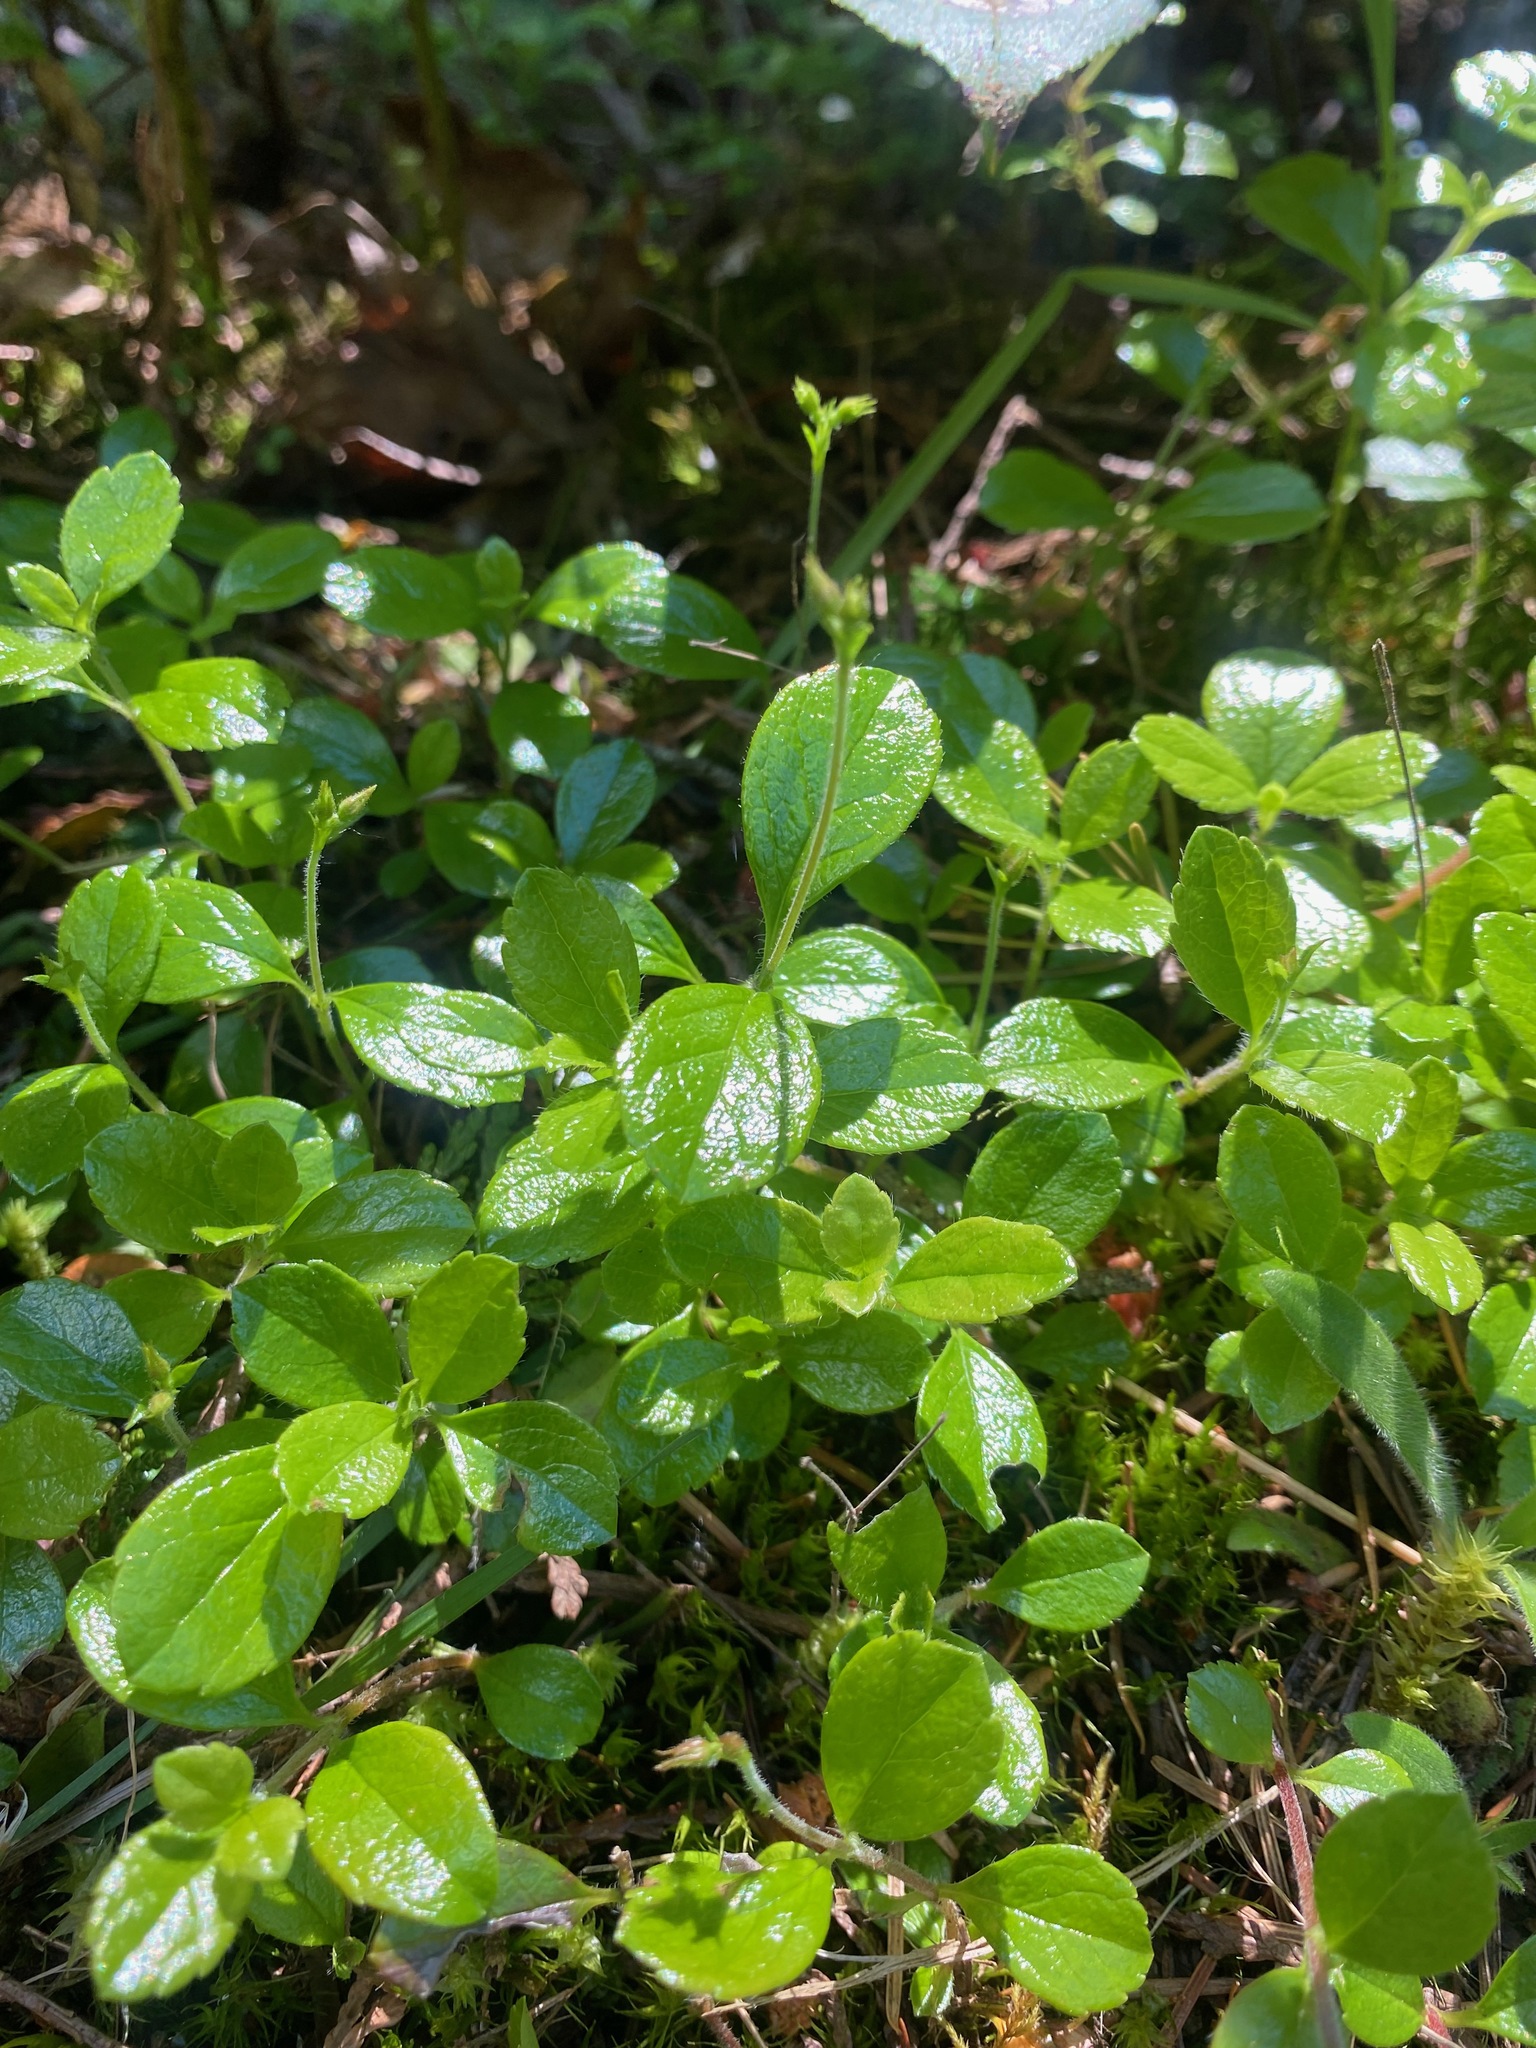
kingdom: Plantae
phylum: Tracheophyta
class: Magnoliopsida
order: Dipsacales
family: Caprifoliaceae
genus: Linnaea
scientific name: Linnaea borealis
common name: Twinflower
